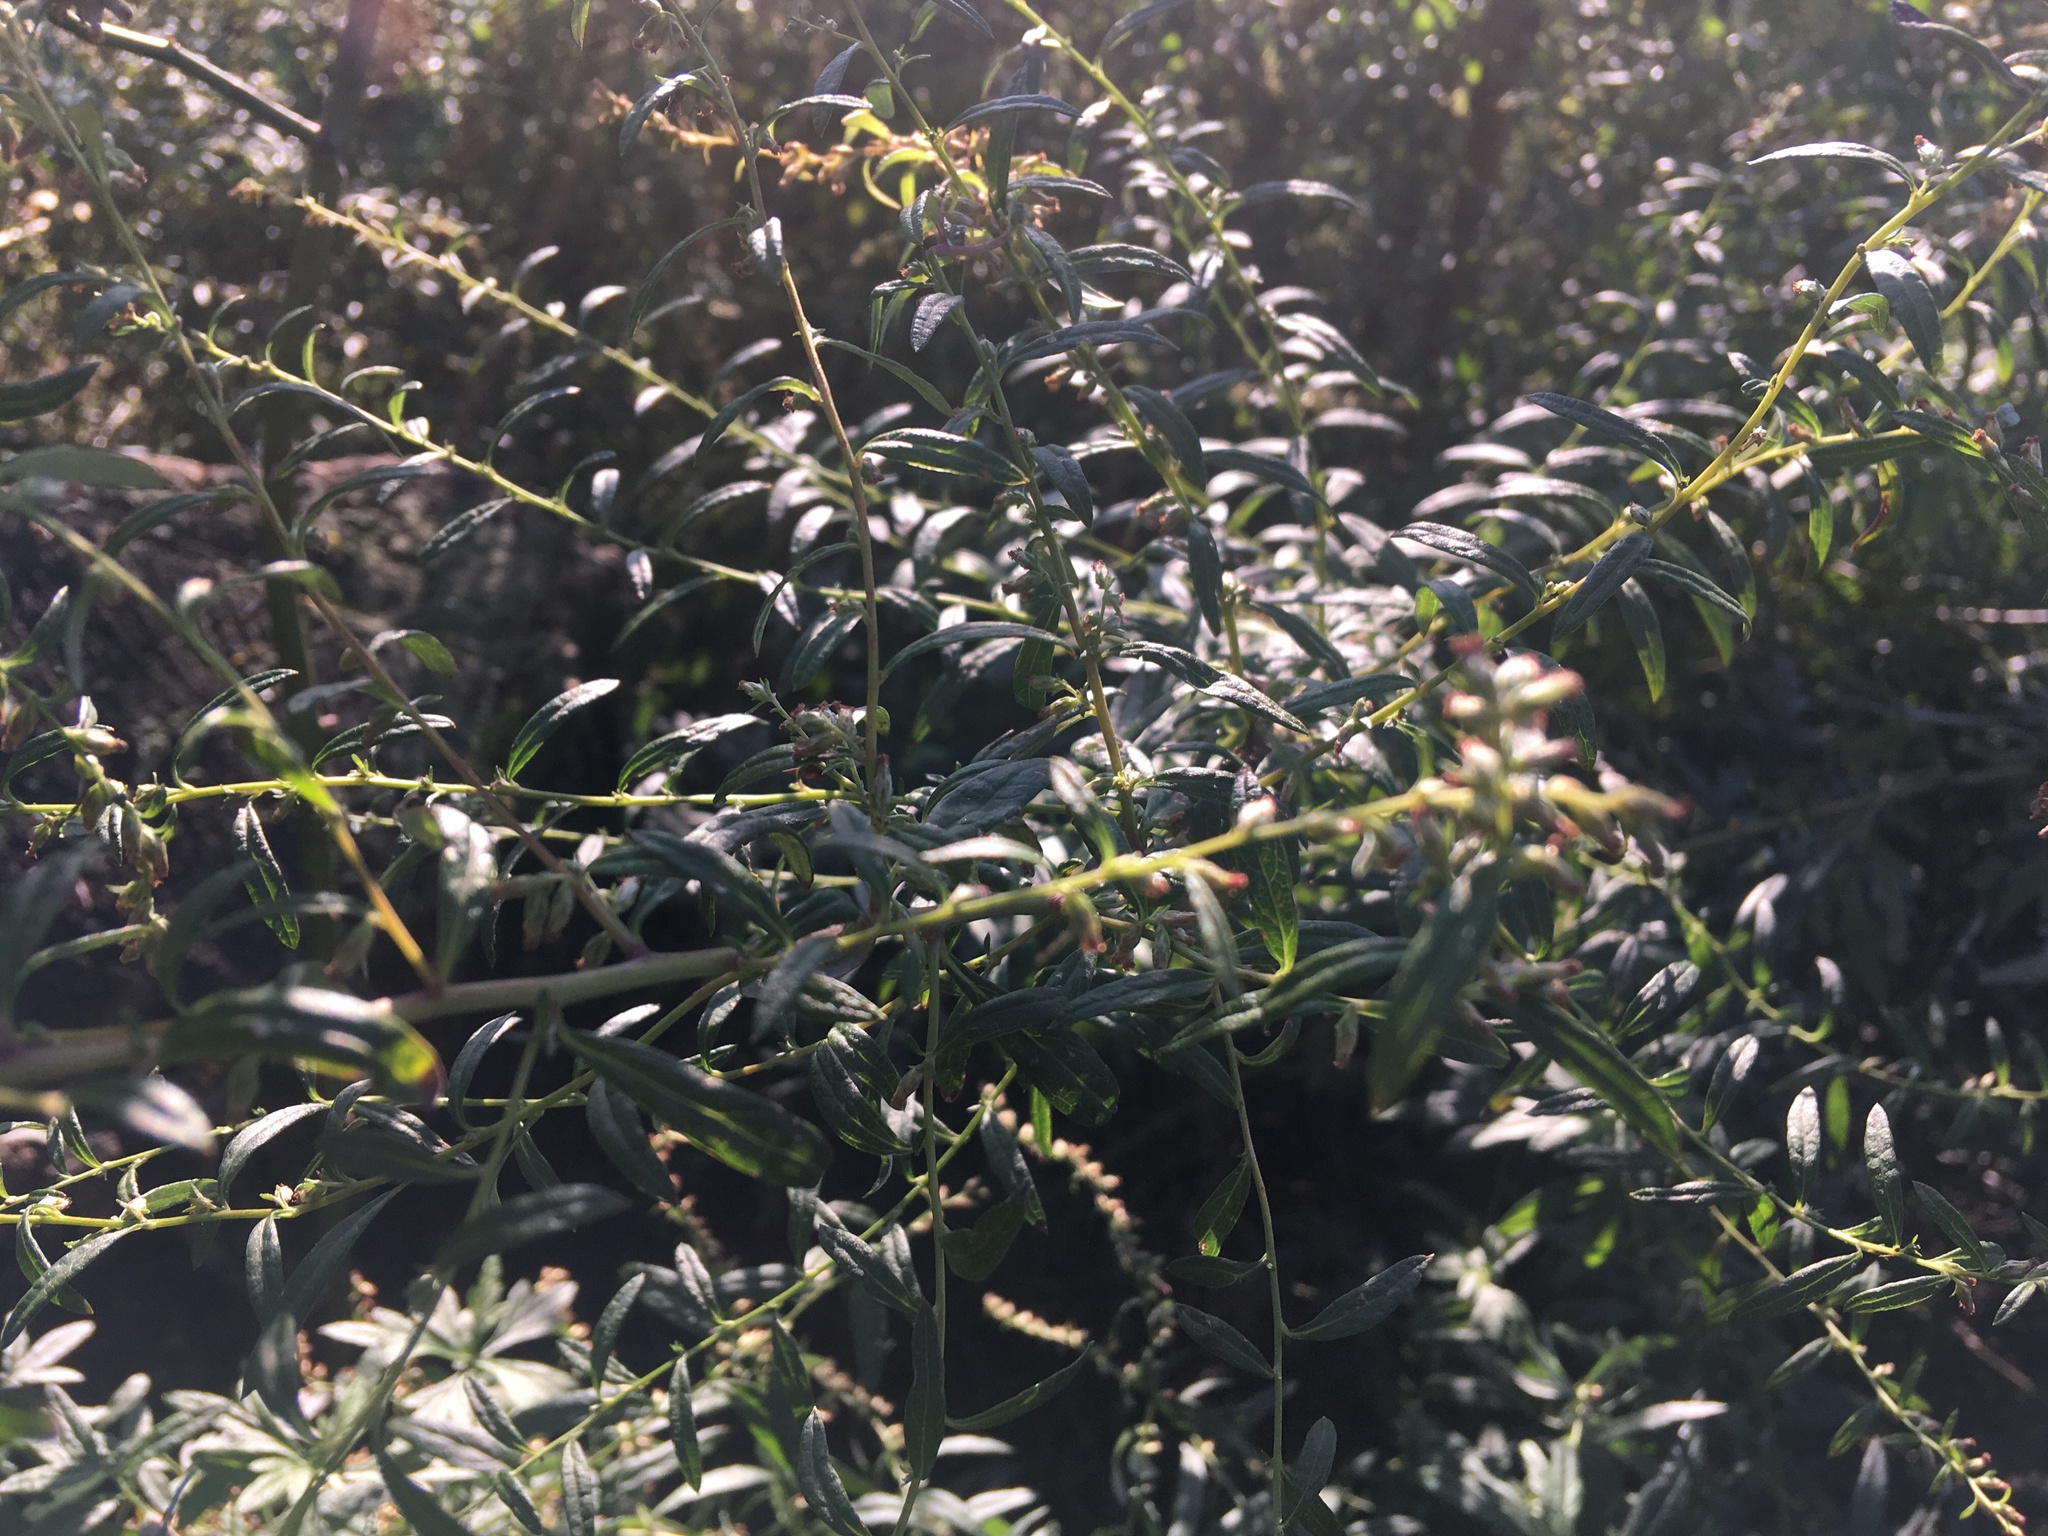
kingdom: Plantae
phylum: Tracheophyta
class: Magnoliopsida
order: Asterales
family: Asteraceae
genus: Artemisia
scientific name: Artemisia vulgaris
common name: Mugwort
